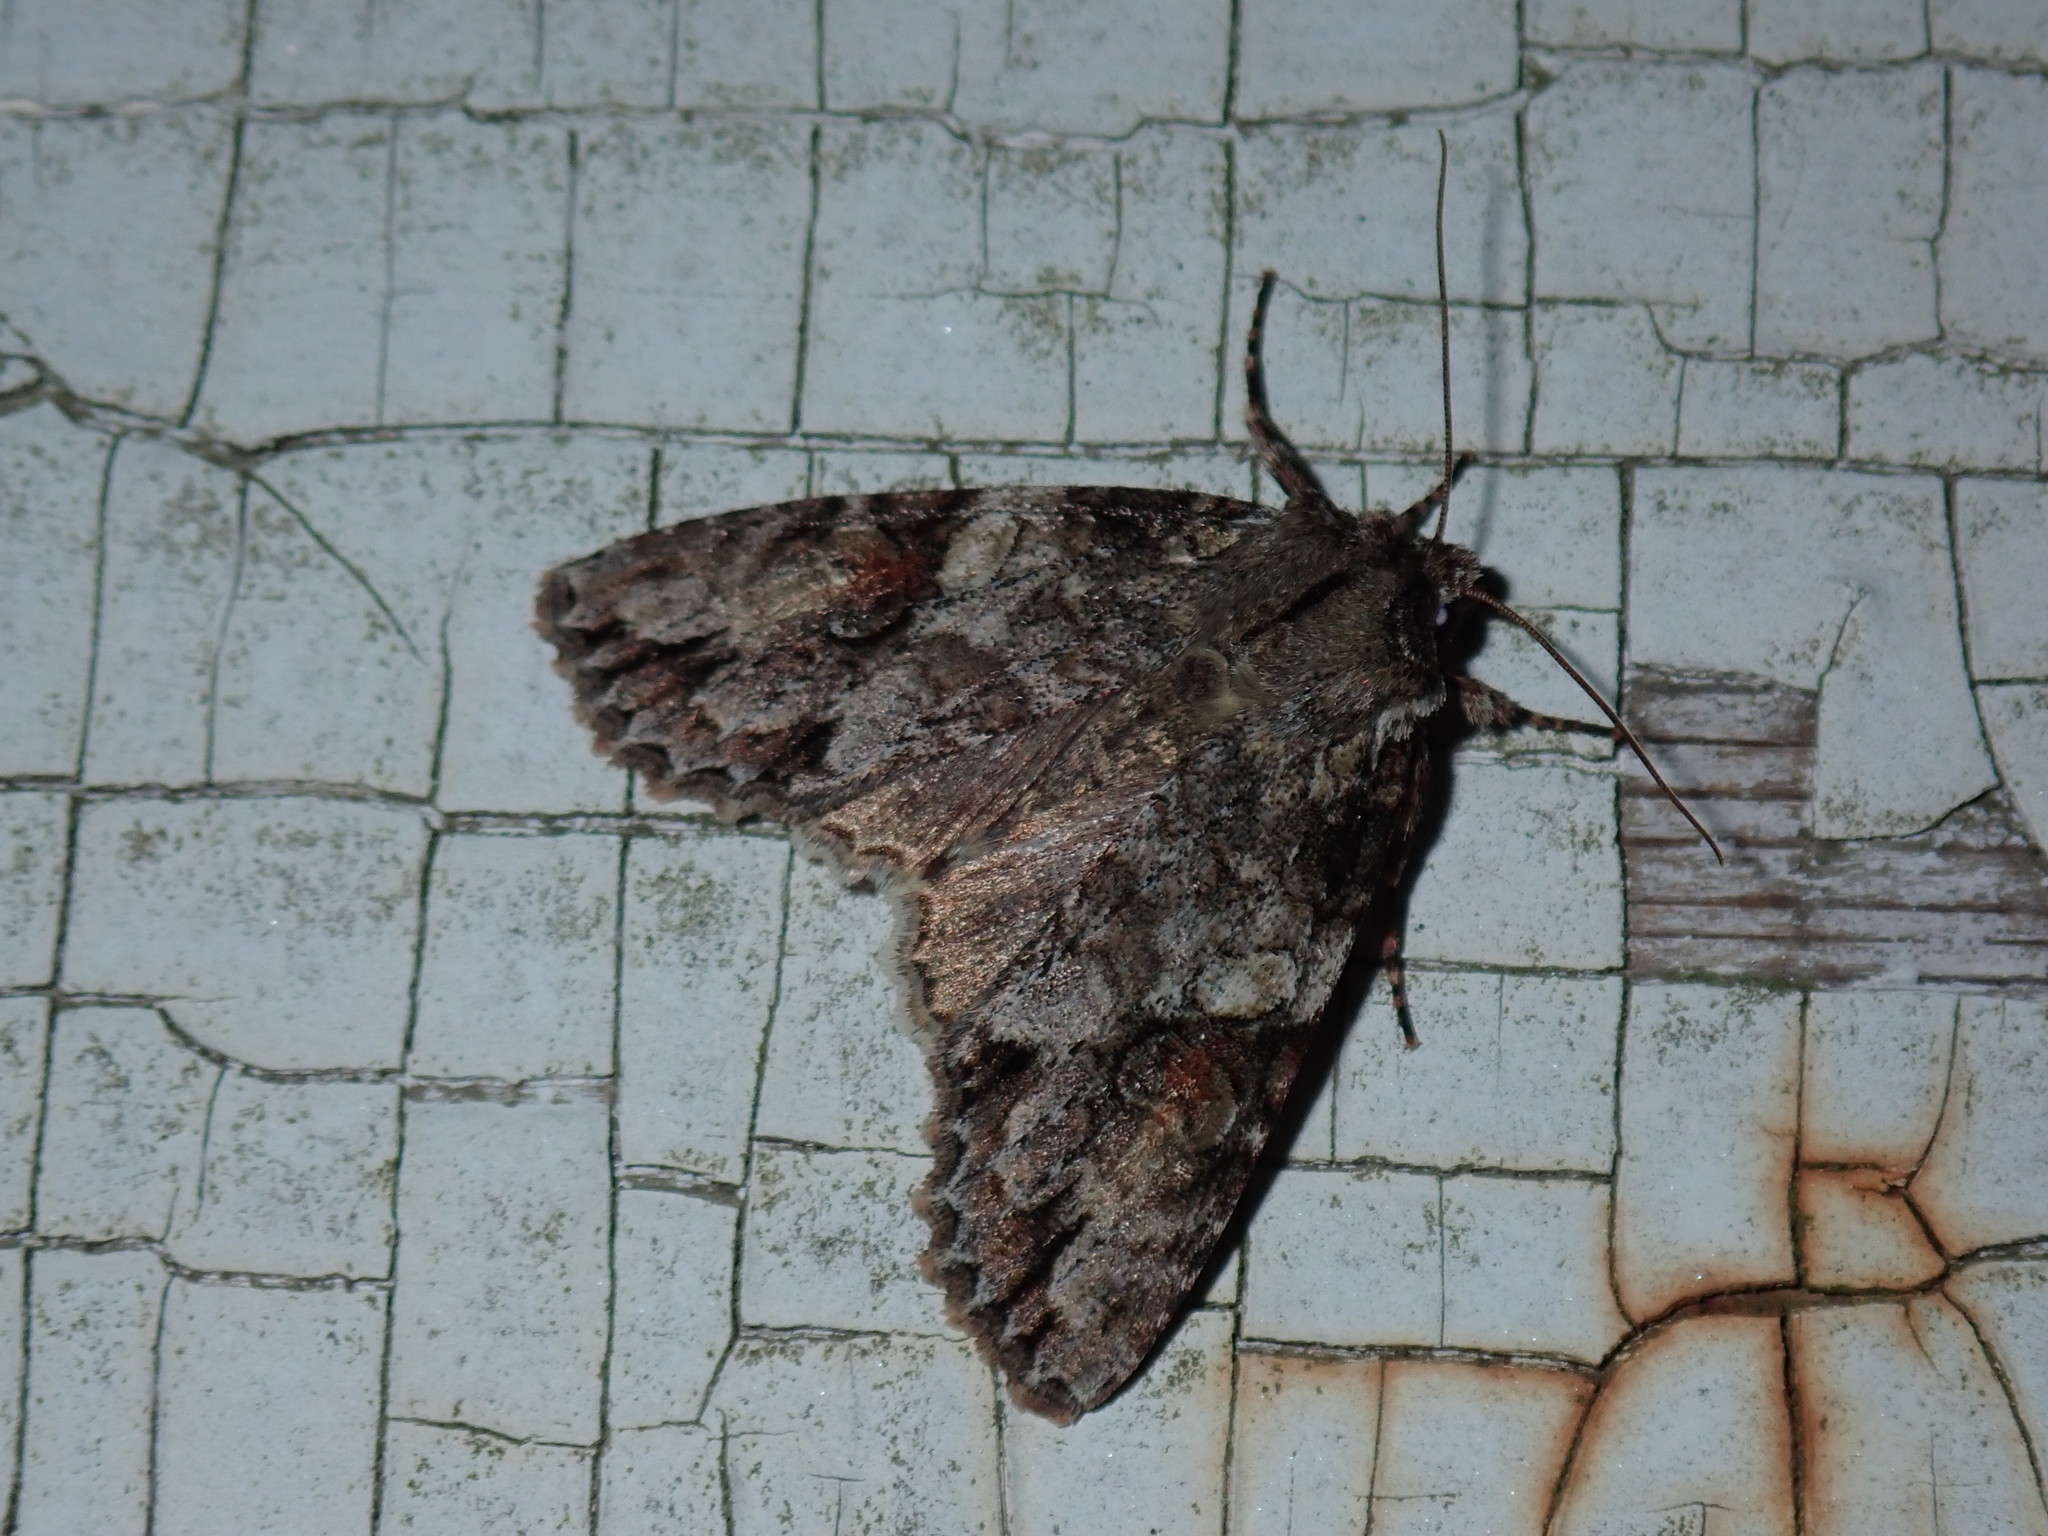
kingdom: Animalia
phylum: Arthropoda
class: Insecta
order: Lepidoptera
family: Noctuidae
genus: Achatia
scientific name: Achatia latex
